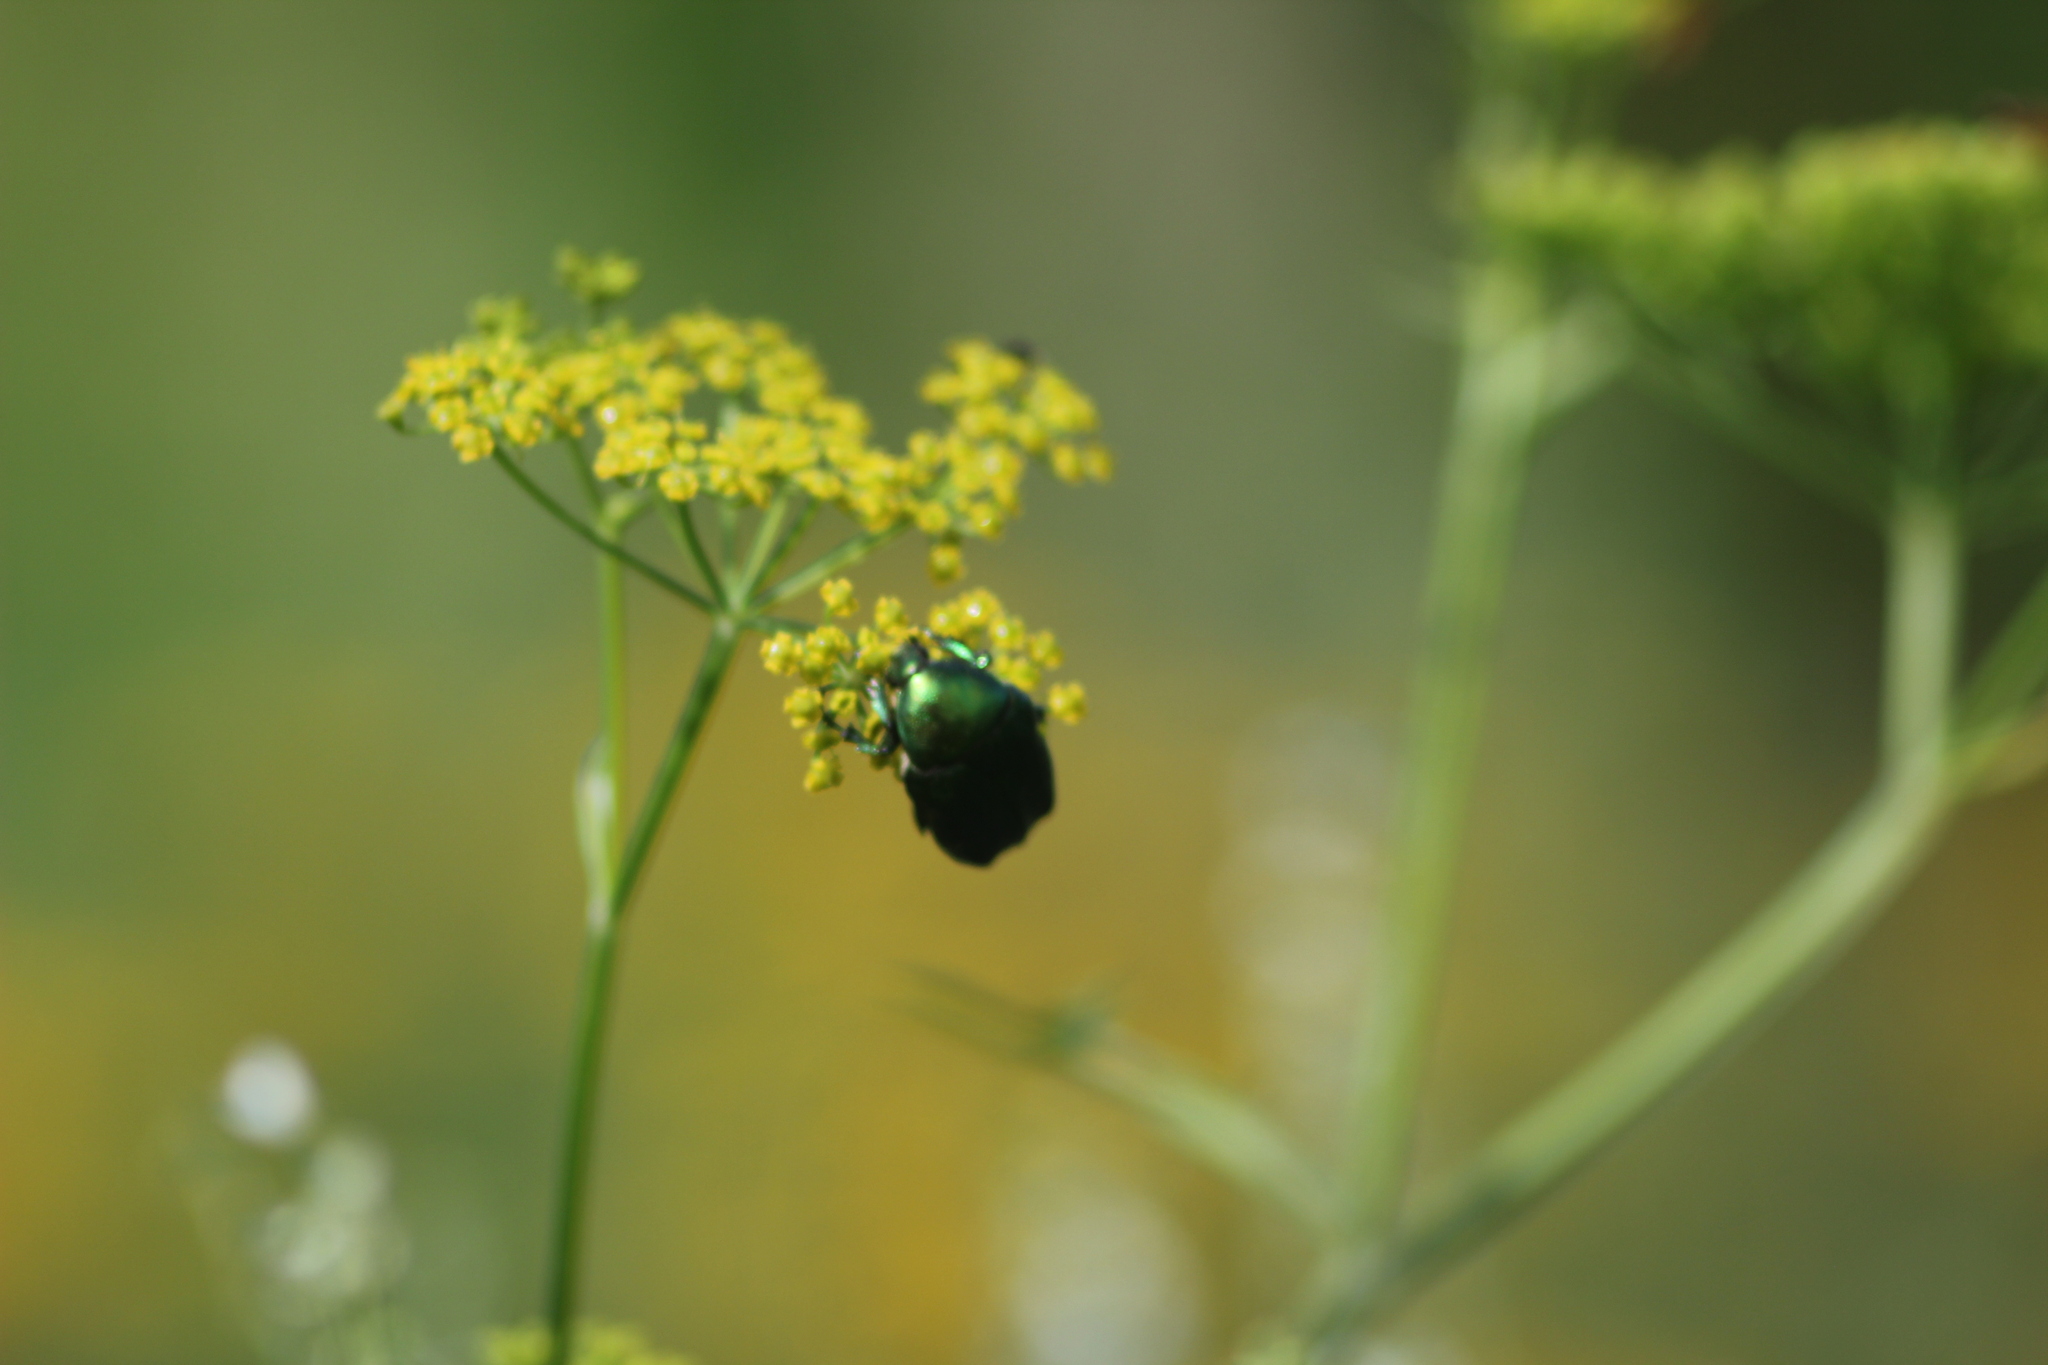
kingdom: Animalia
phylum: Arthropoda
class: Insecta
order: Coleoptera
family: Scarabaeidae
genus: Cetonia
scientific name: Cetonia aurata
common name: Rose chafer
